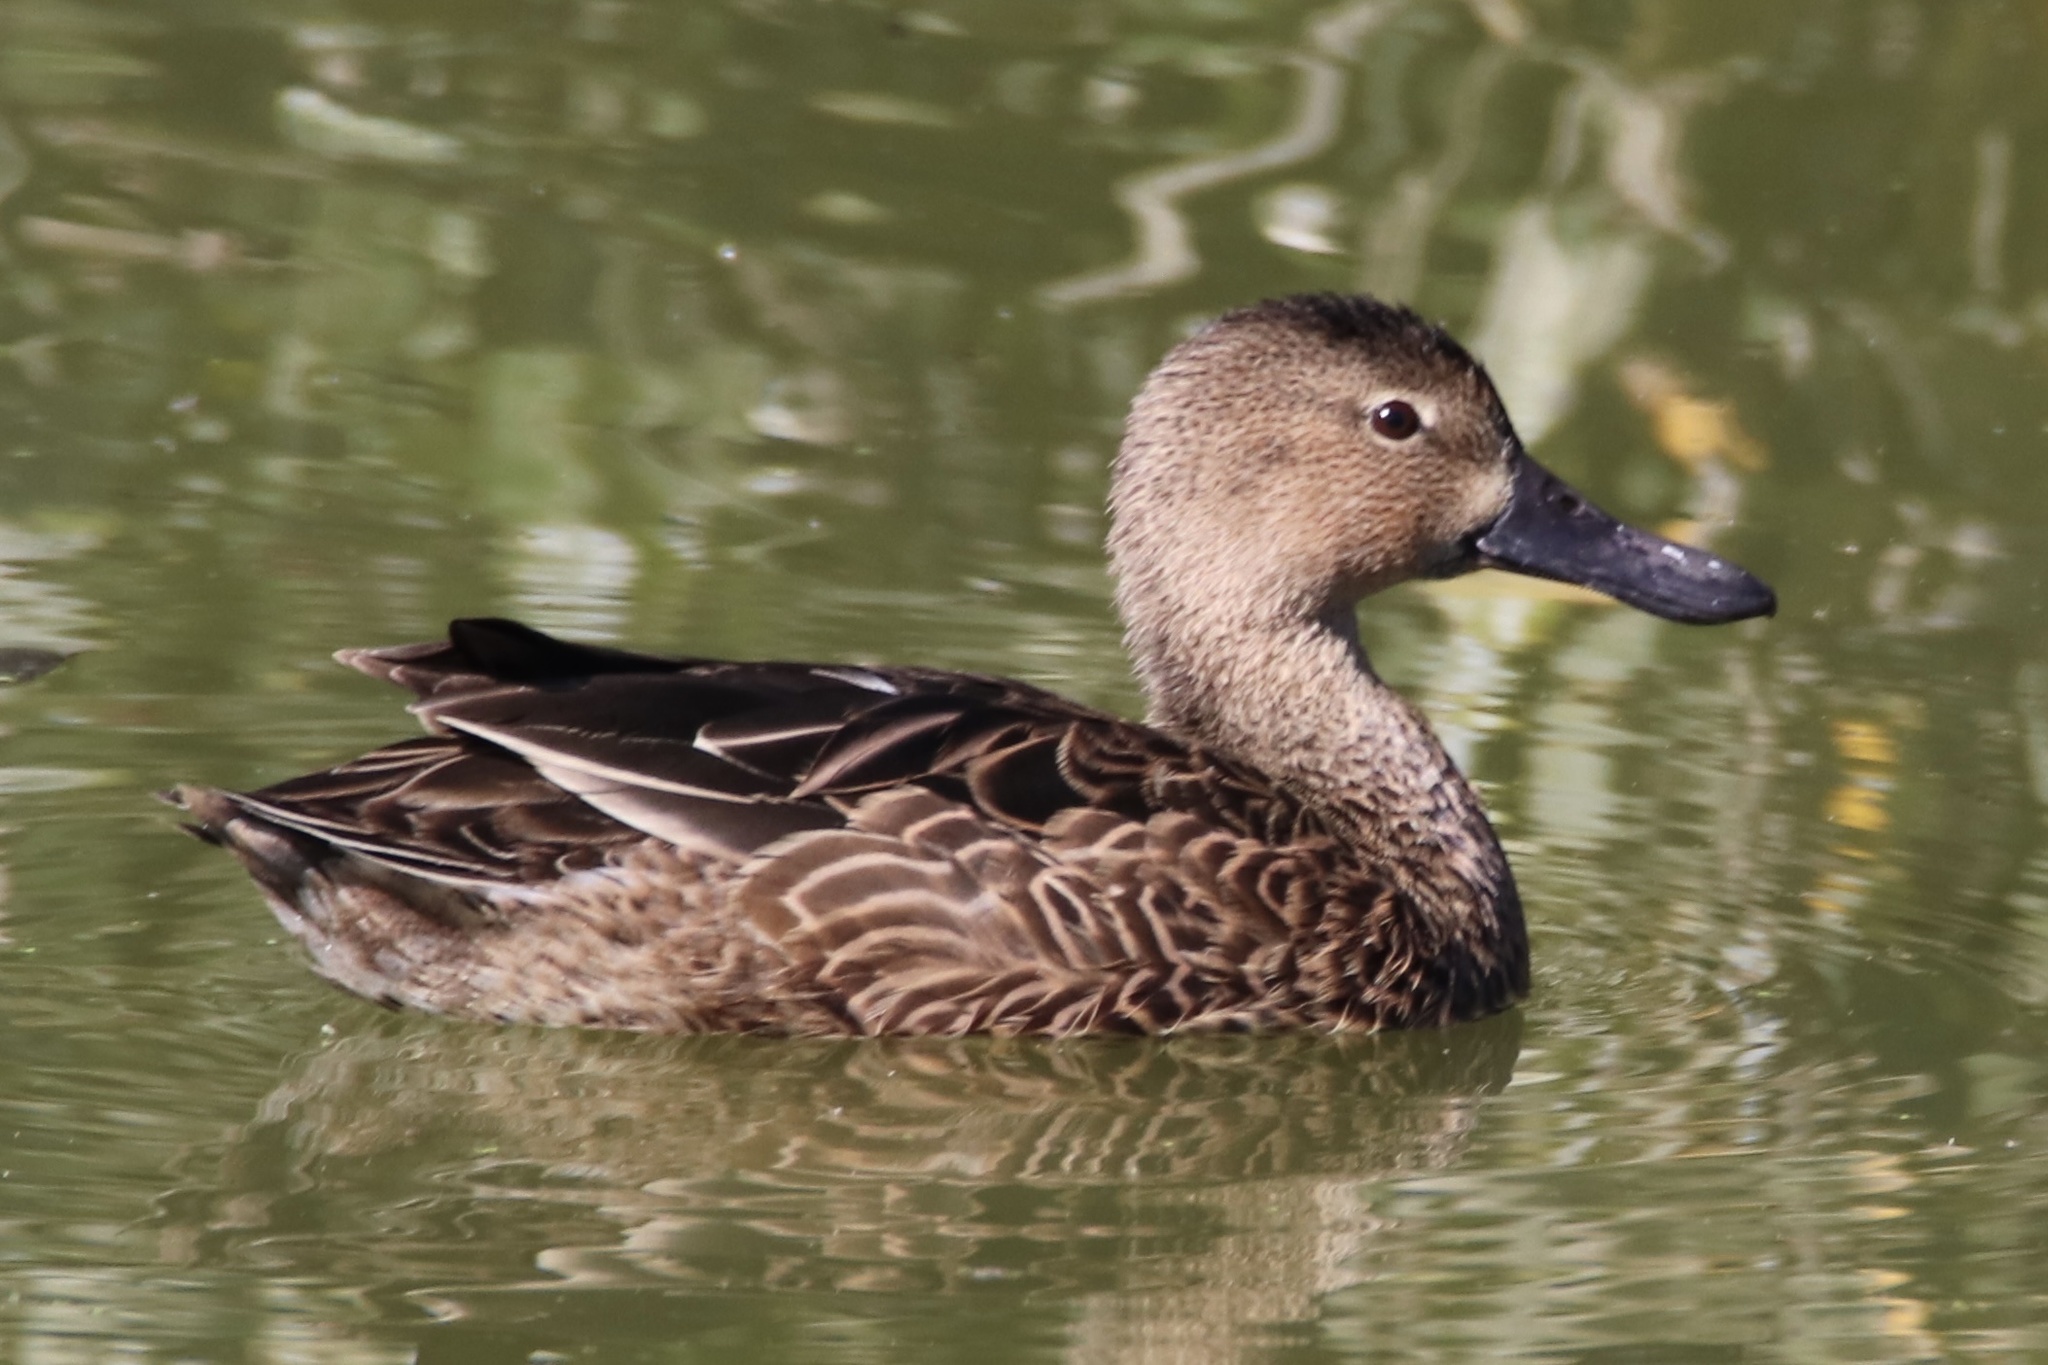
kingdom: Animalia
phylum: Chordata
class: Aves
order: Anseriformes
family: Anatidae
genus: Spatula
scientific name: Spatula cyanoptera
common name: Cinnamon teal
